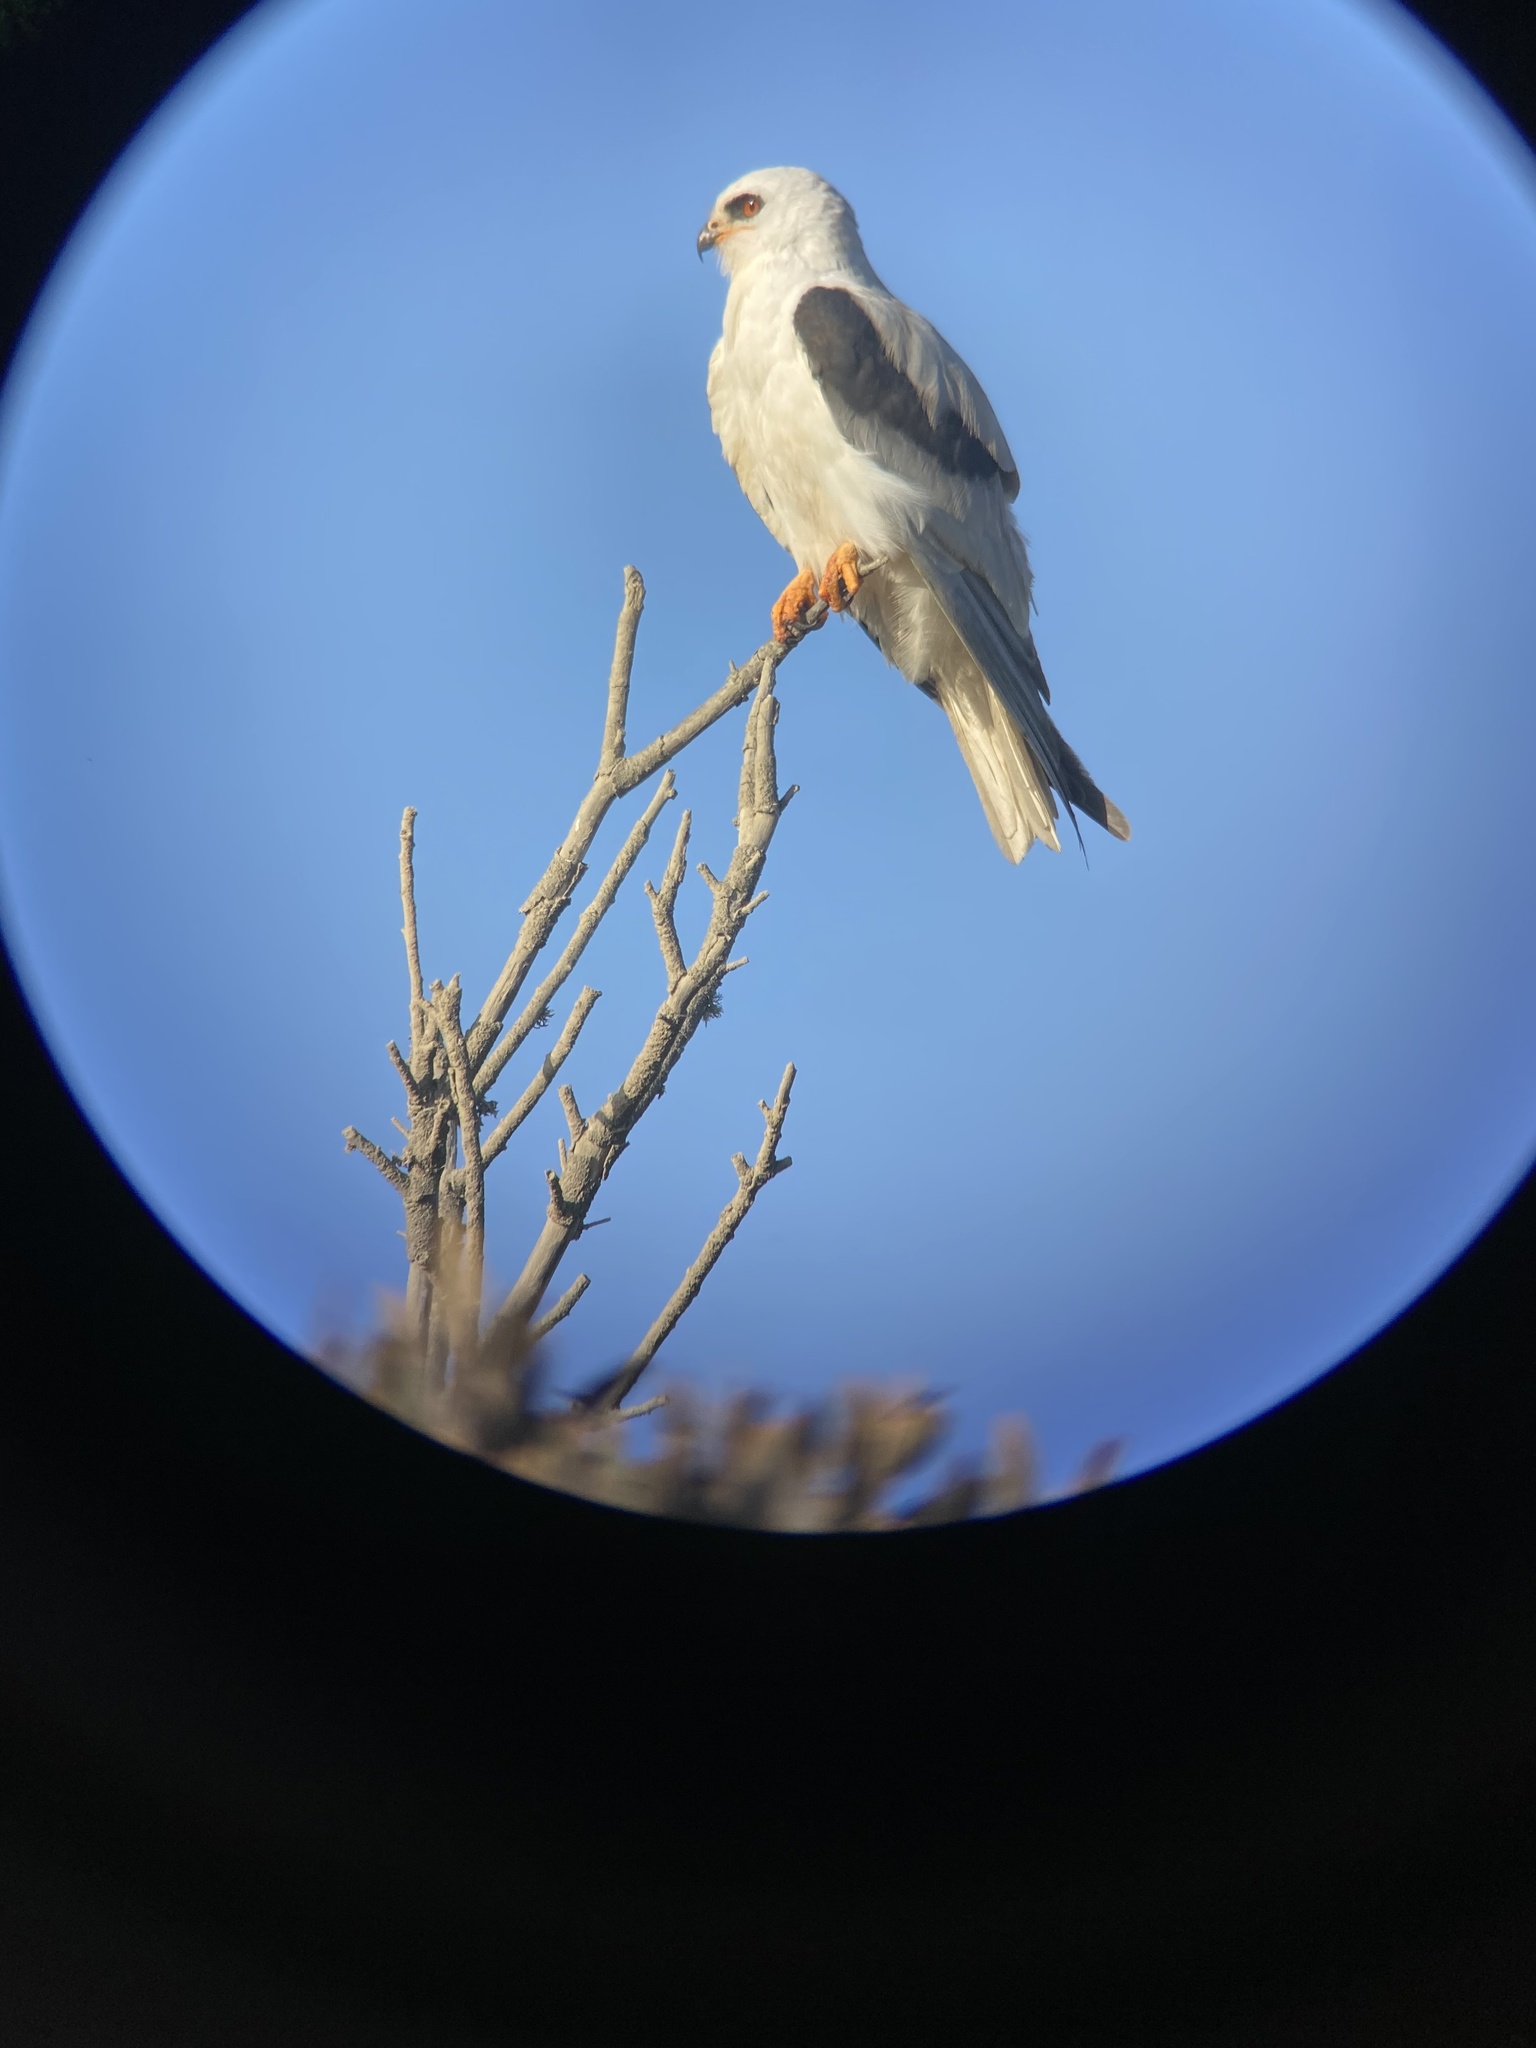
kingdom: Animalia
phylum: Chordata
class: Aves
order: Accipitriformes
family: Accipitridae
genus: Elanus
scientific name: Elanus leucurus
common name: White-tailed kite
